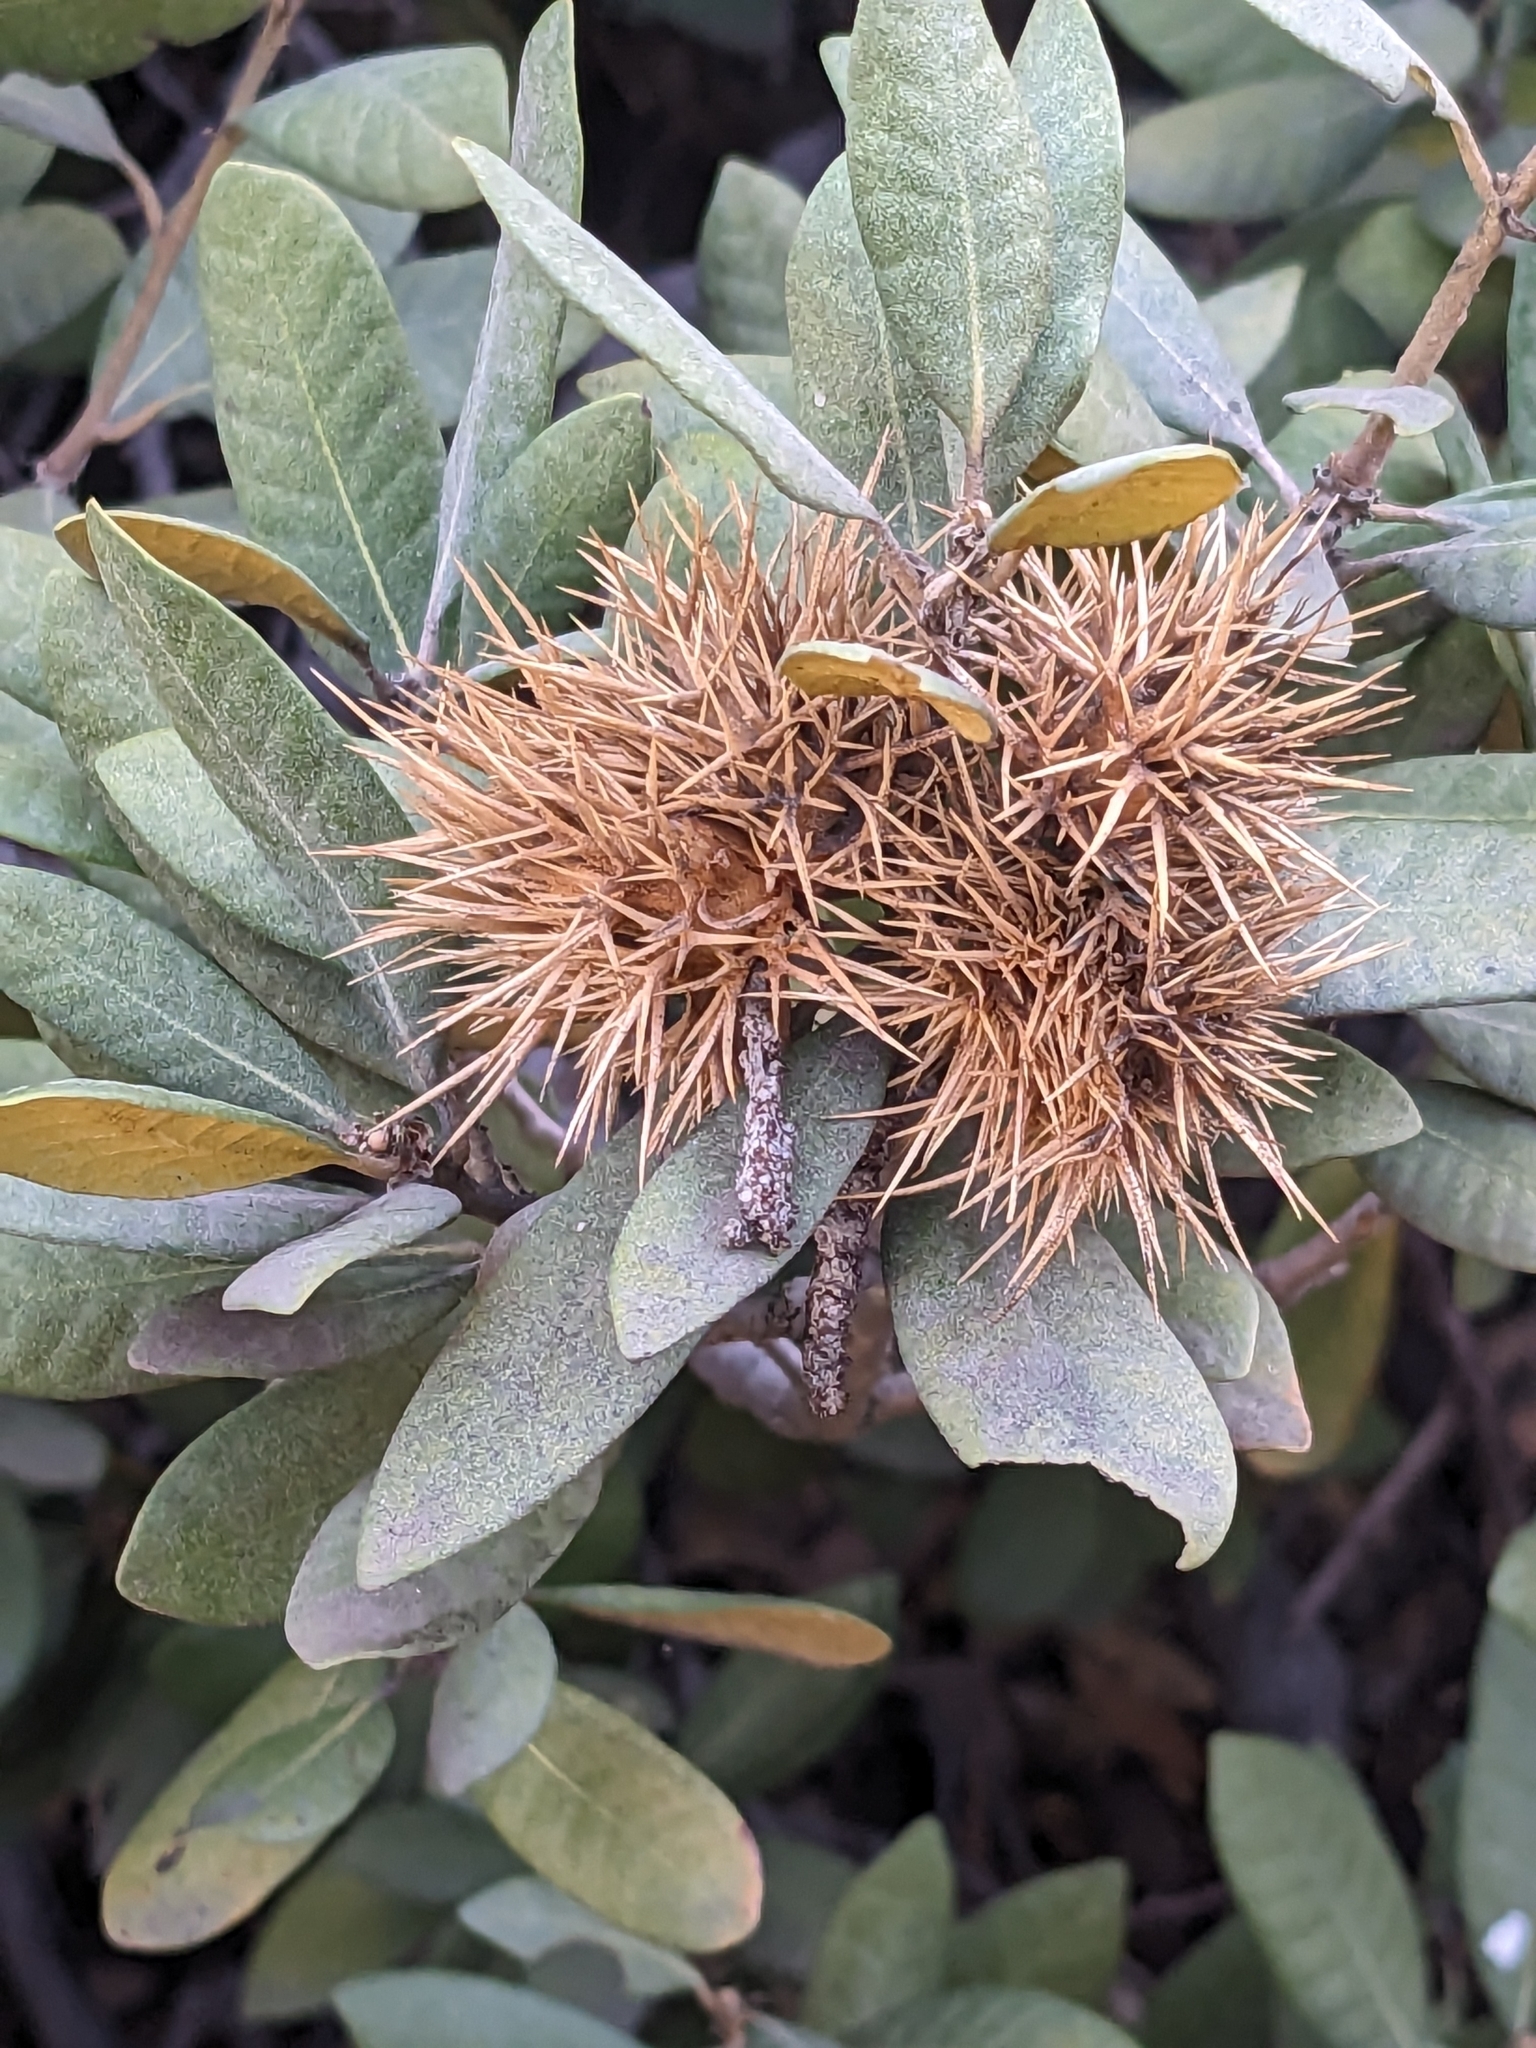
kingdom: Plantae
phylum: Tracheophyta
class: Magnoliopsida
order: Fagales
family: Fagaceae
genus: Chrysolepis
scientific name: Chrysolepis sempervirens
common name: Bush chinquapin
